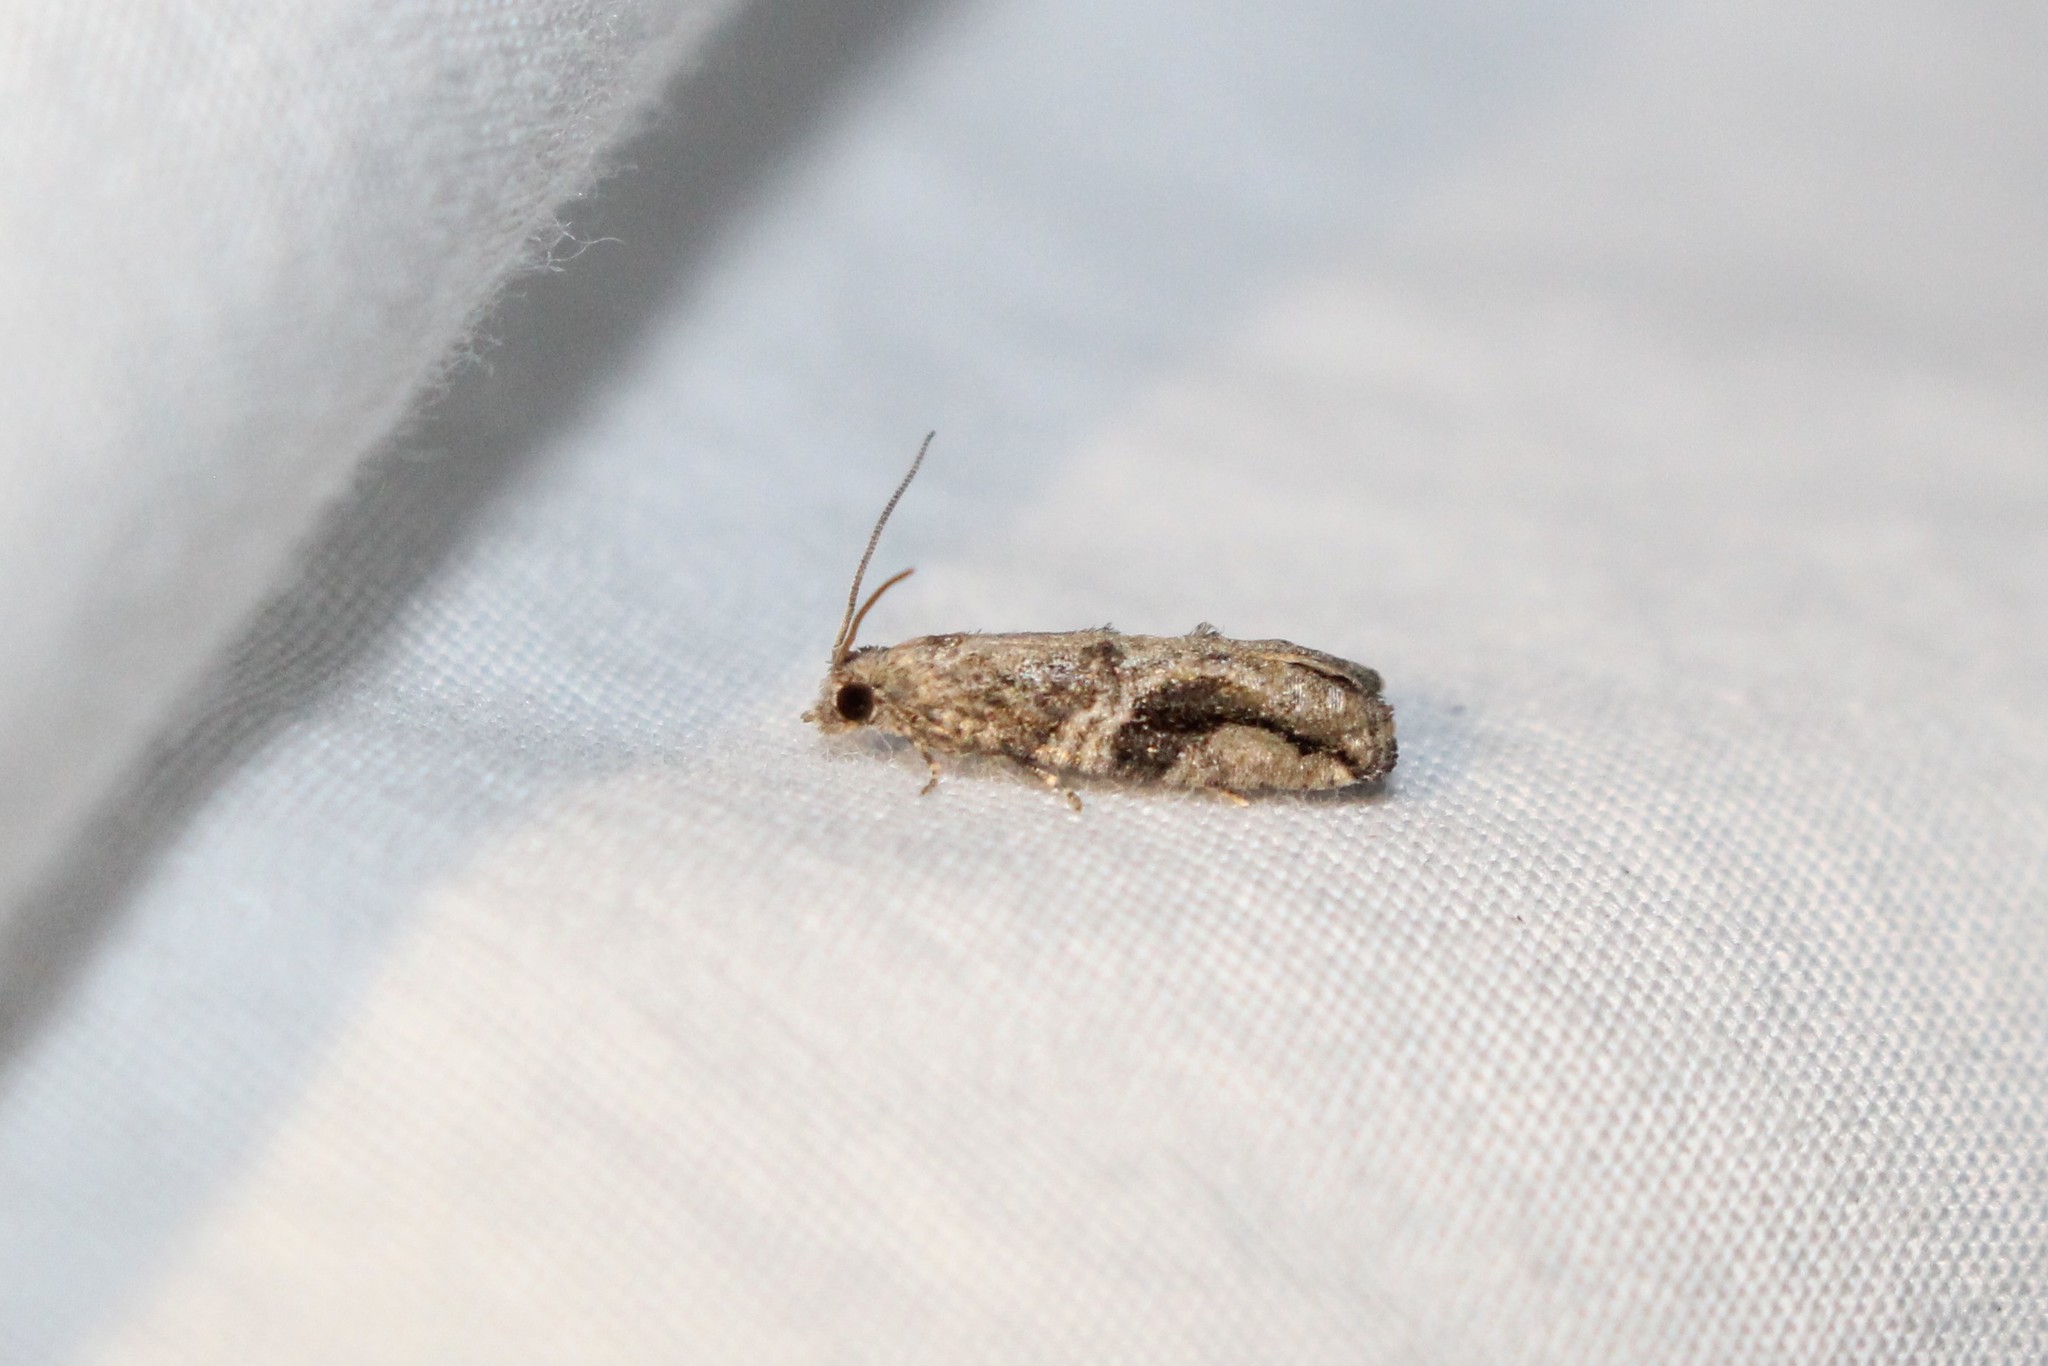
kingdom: Animalia
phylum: Arthropoda
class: Insecta
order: Lepidoptera
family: Tortricidae
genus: Proteoteras
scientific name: Proteoteras crescentana
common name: Black-crescent proteoteras moth
